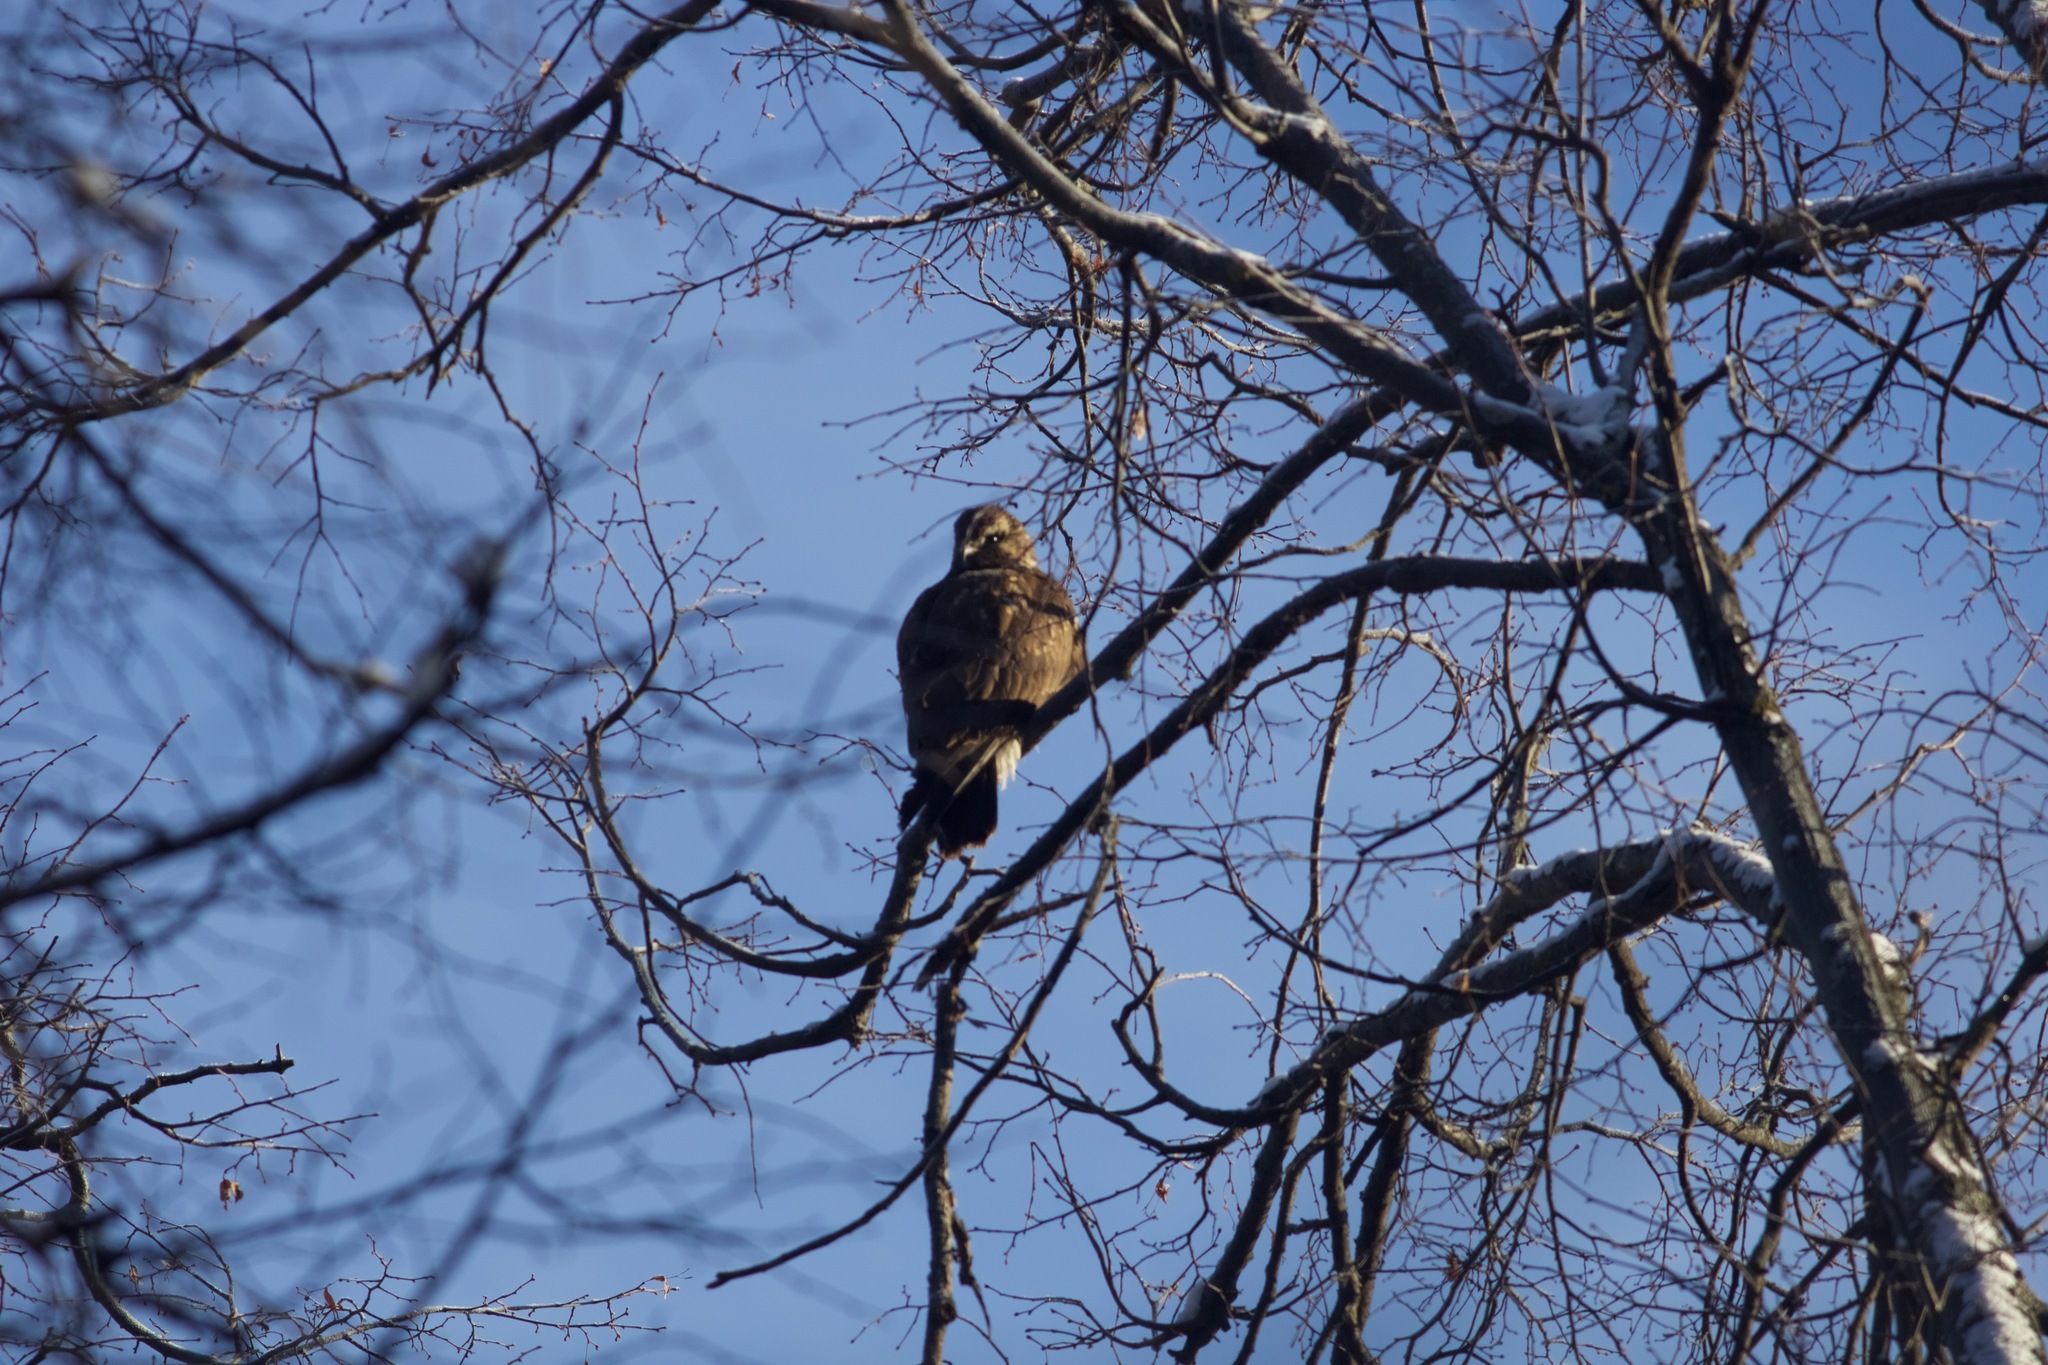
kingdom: Animalia
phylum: Chordata
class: Aves
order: Accipitriformes
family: Accipitridae
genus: Buteo
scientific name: Buteo buteo
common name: Common buzzard
